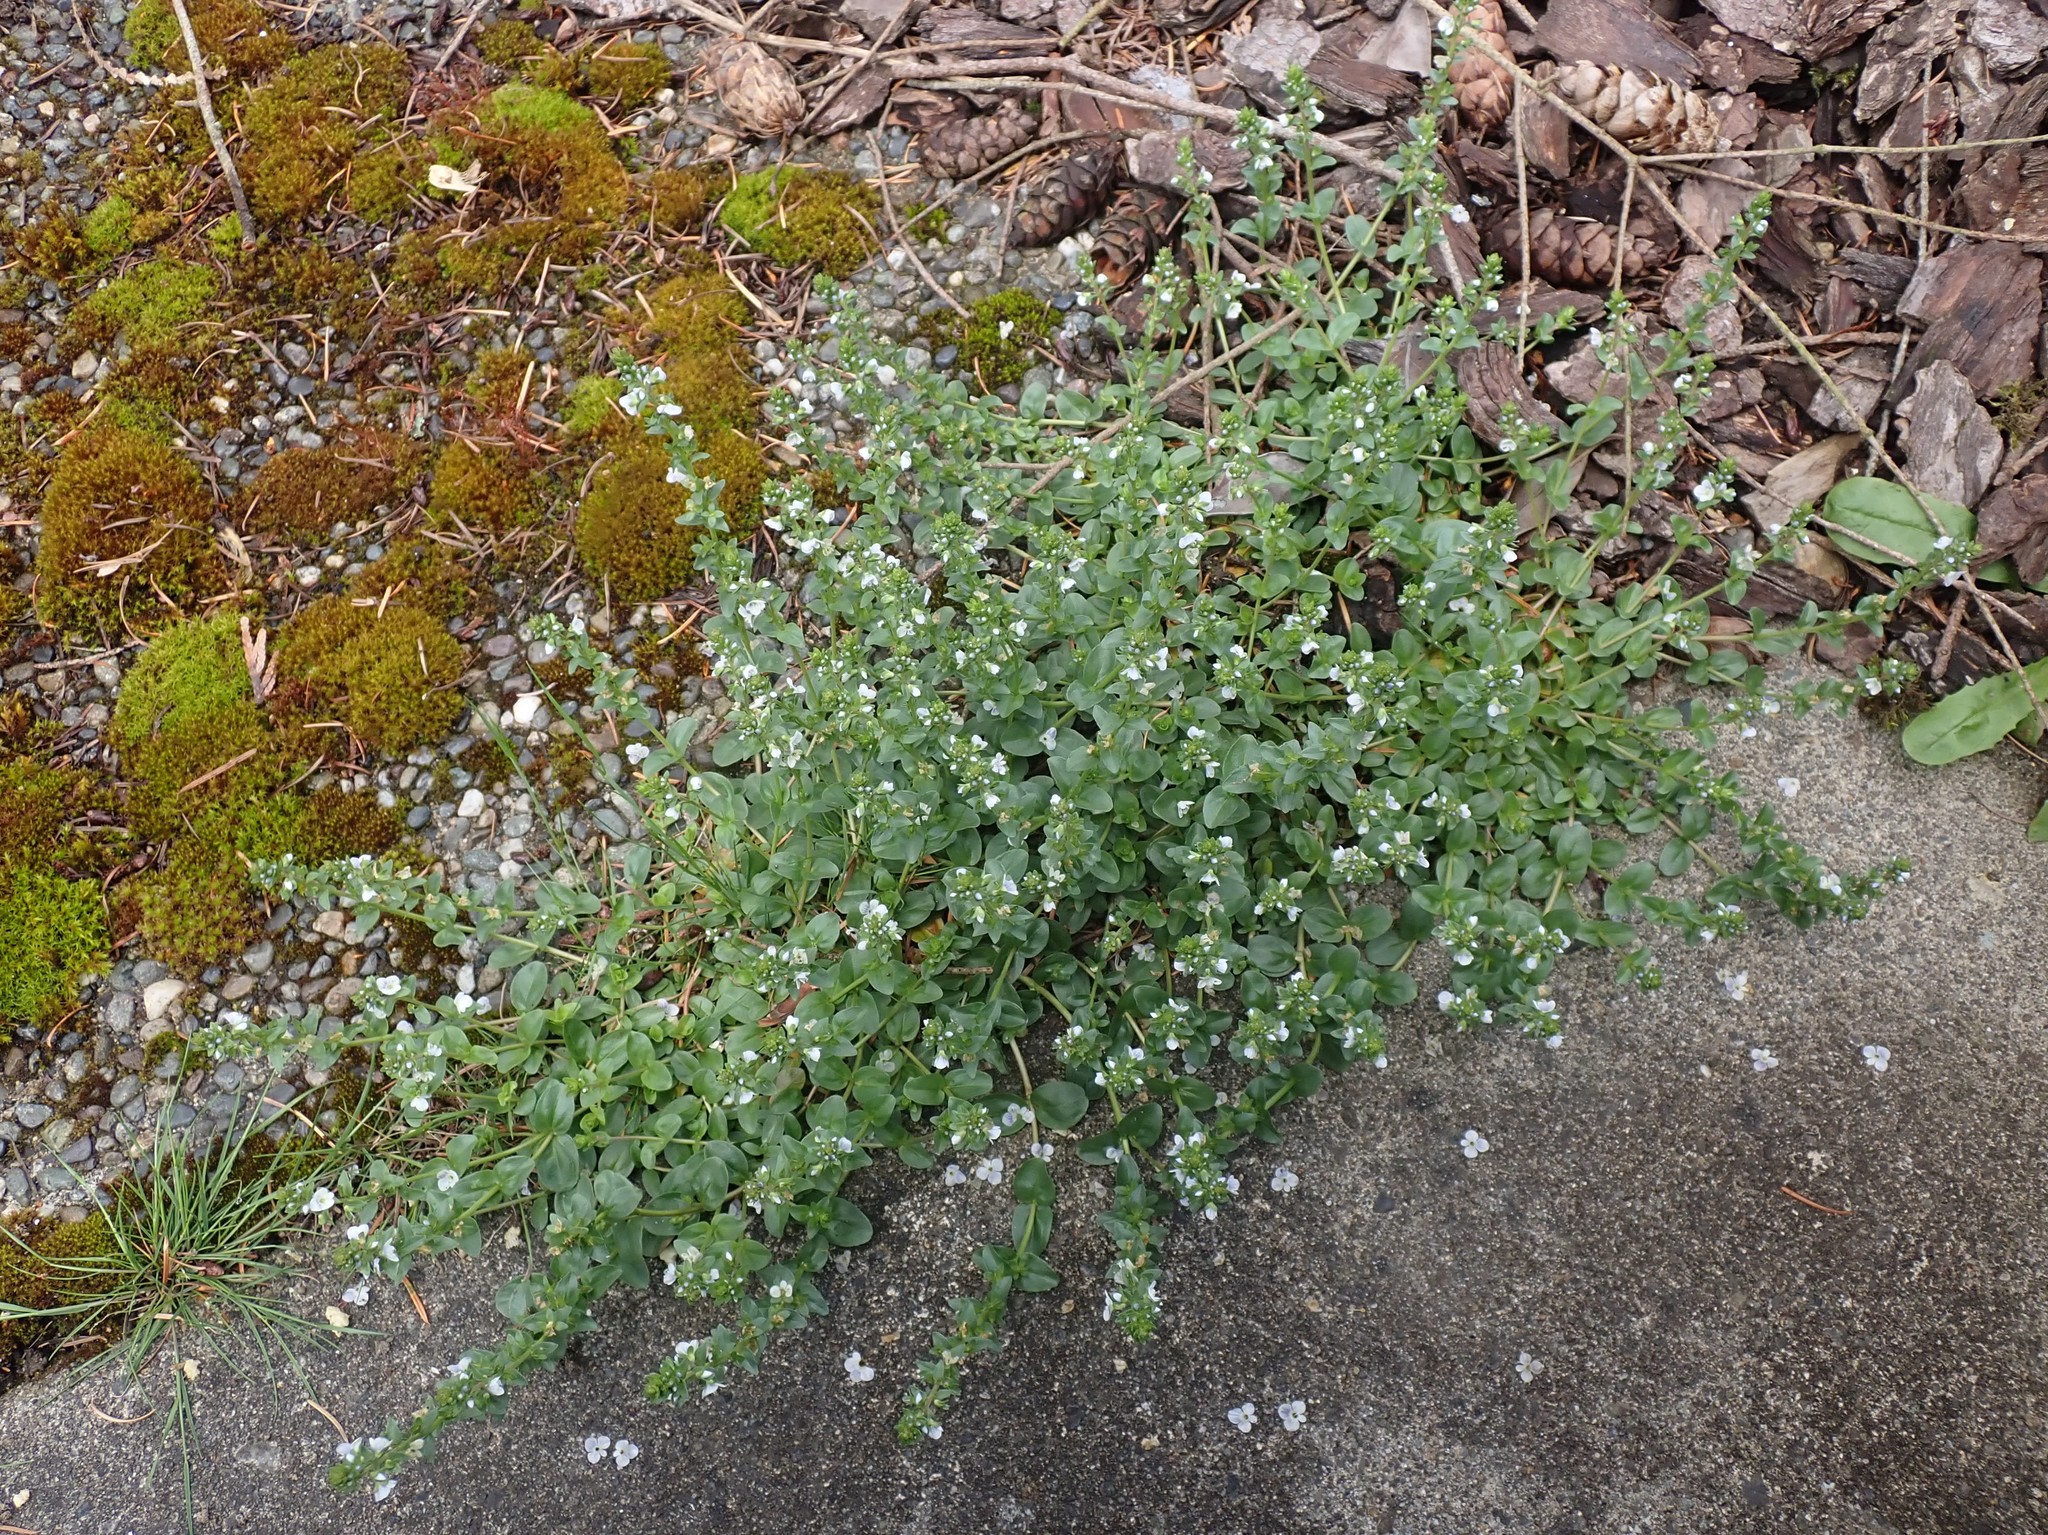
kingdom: Plantae
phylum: Tracheophyta
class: Magnoliopsida
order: Lamiales
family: Plantaginaceae
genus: Veronica
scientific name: Veronica serpyllifolia
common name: Thyme-leaved speedwell
